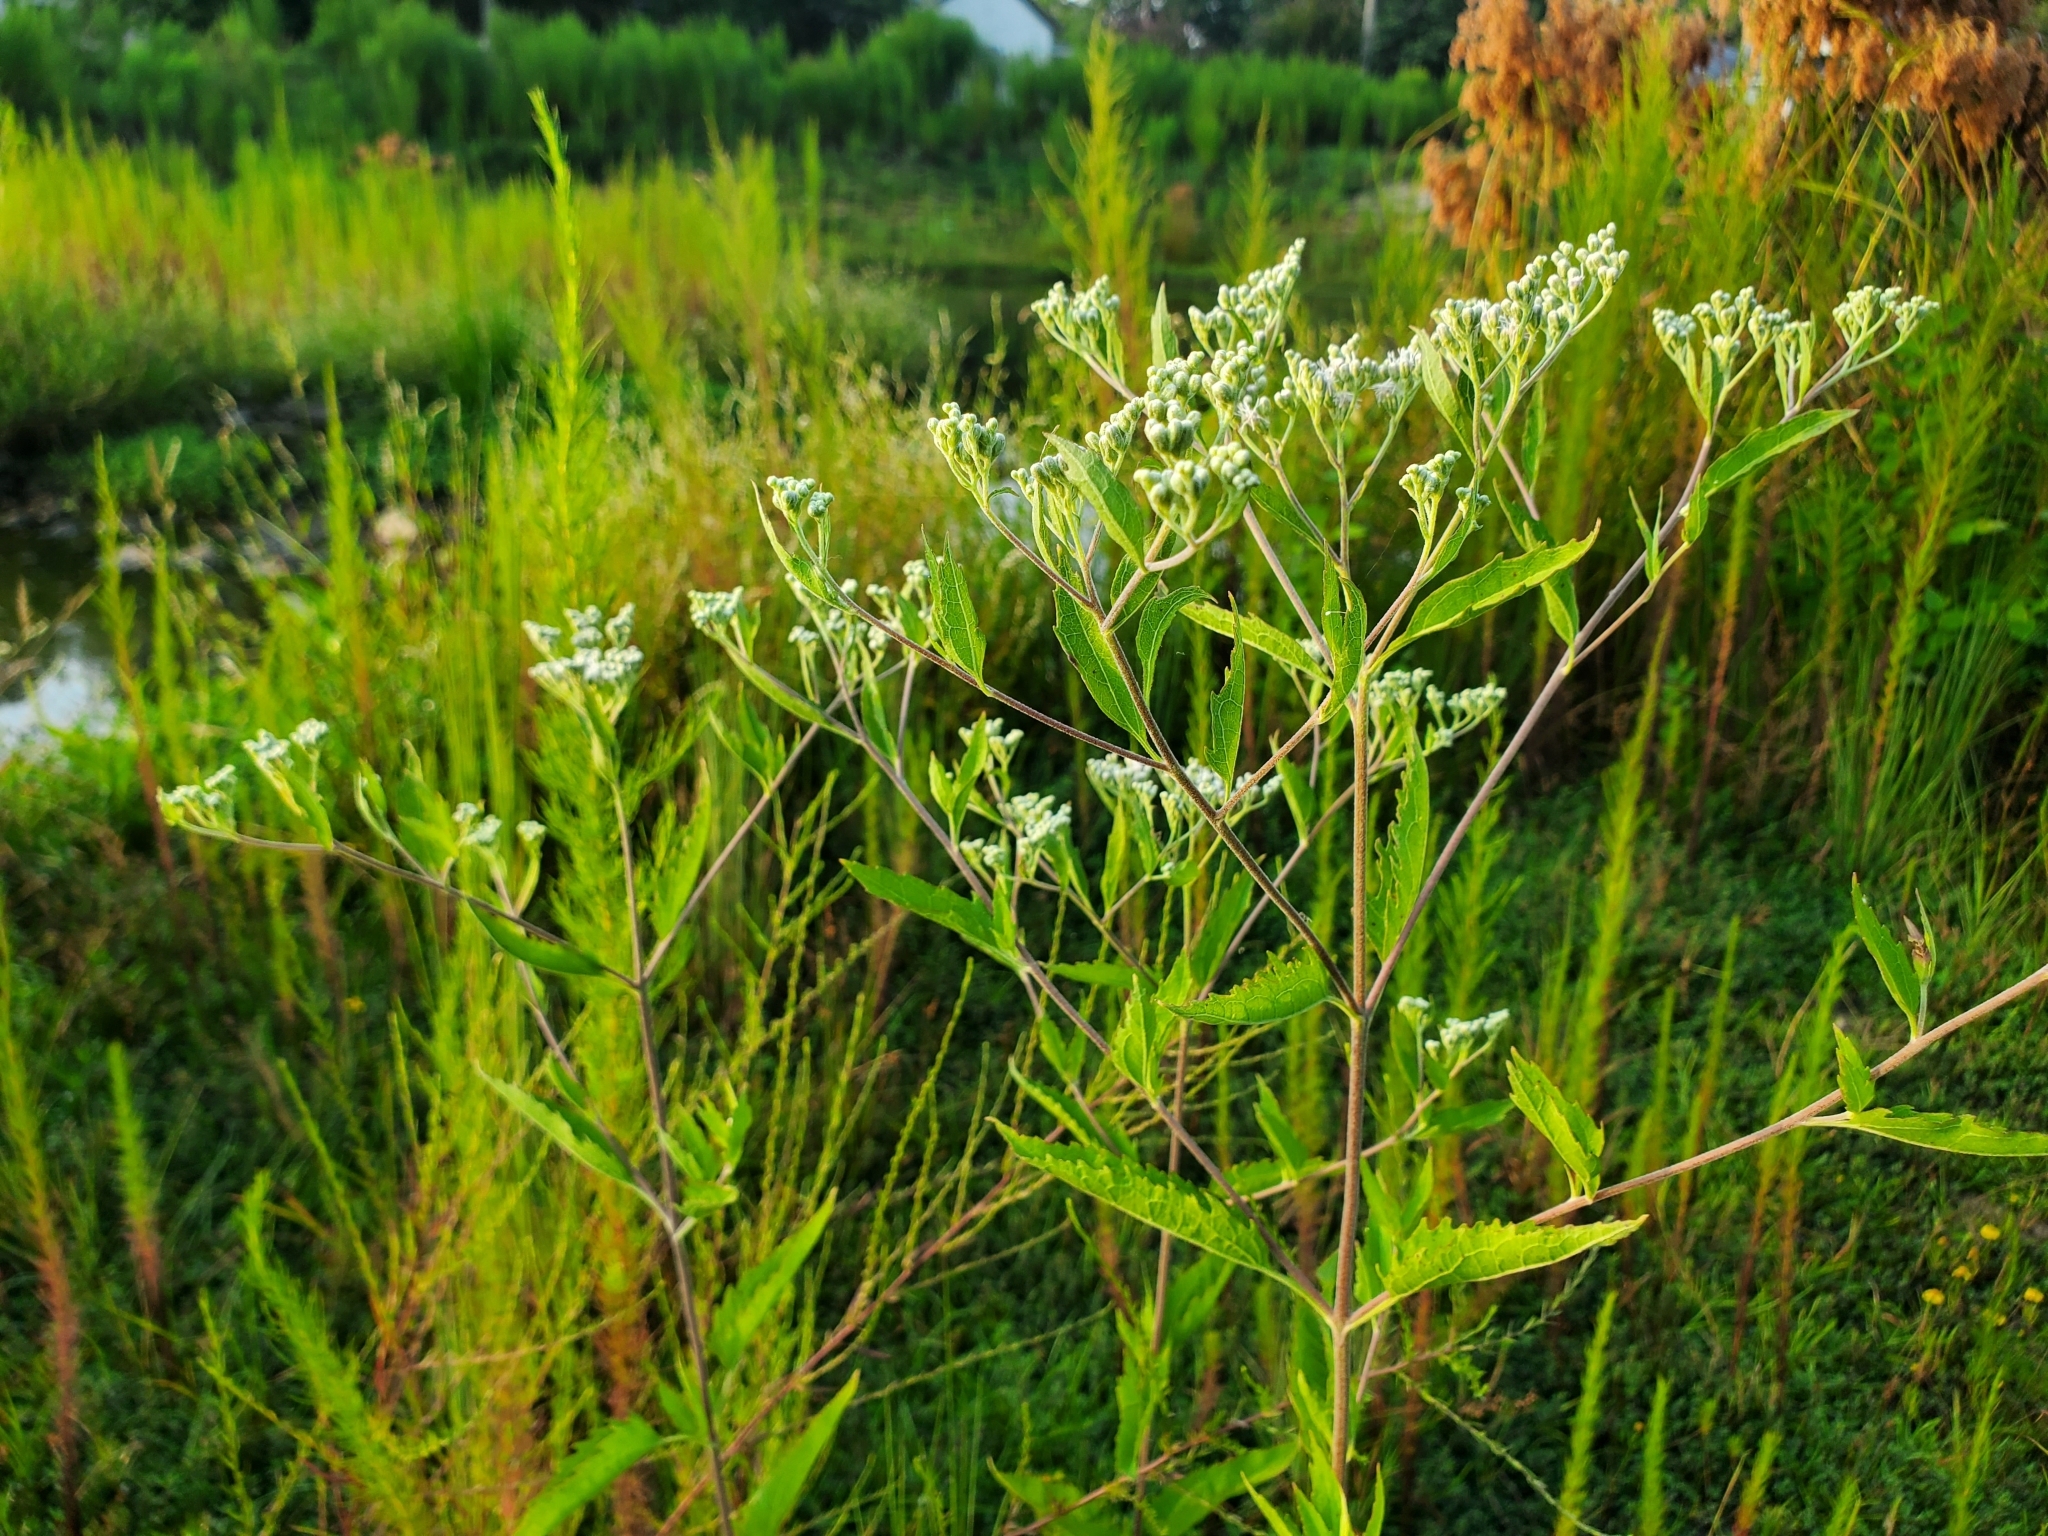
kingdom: Plantae
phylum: Tracheophyta
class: Magnoliopsida
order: Asterales
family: Asteraceae
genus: Eupatorium
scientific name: Eupatorium serotinum
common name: Late boneset
